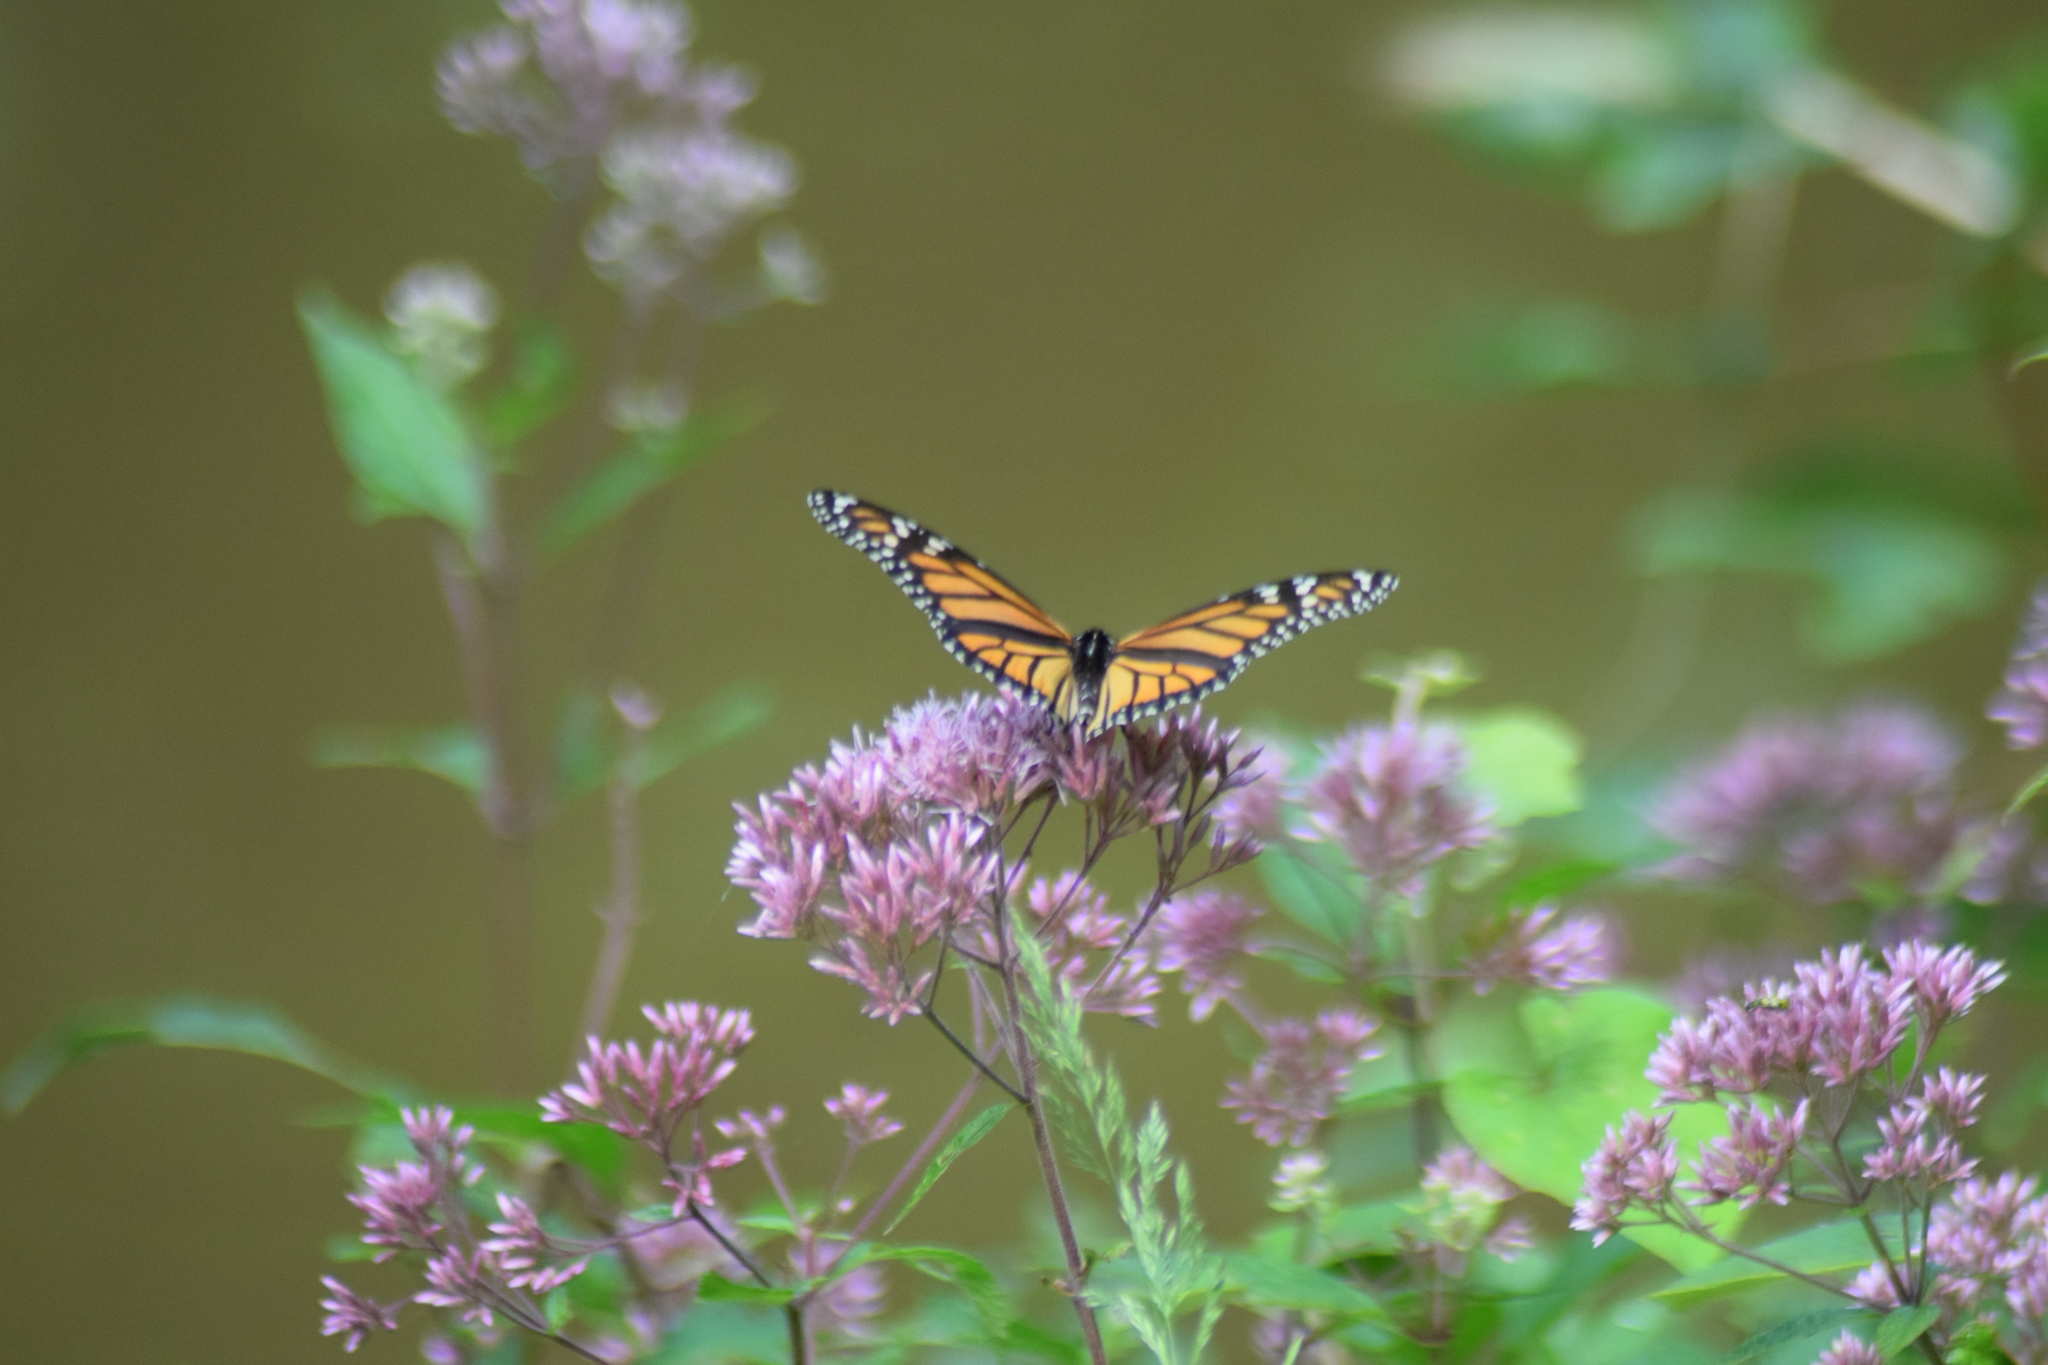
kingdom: Animalia
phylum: Arthropoda
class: Insecta
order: Lepidoptera
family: Nymphalidae
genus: Danaus
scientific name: Danaus plexippus
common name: Monarch
